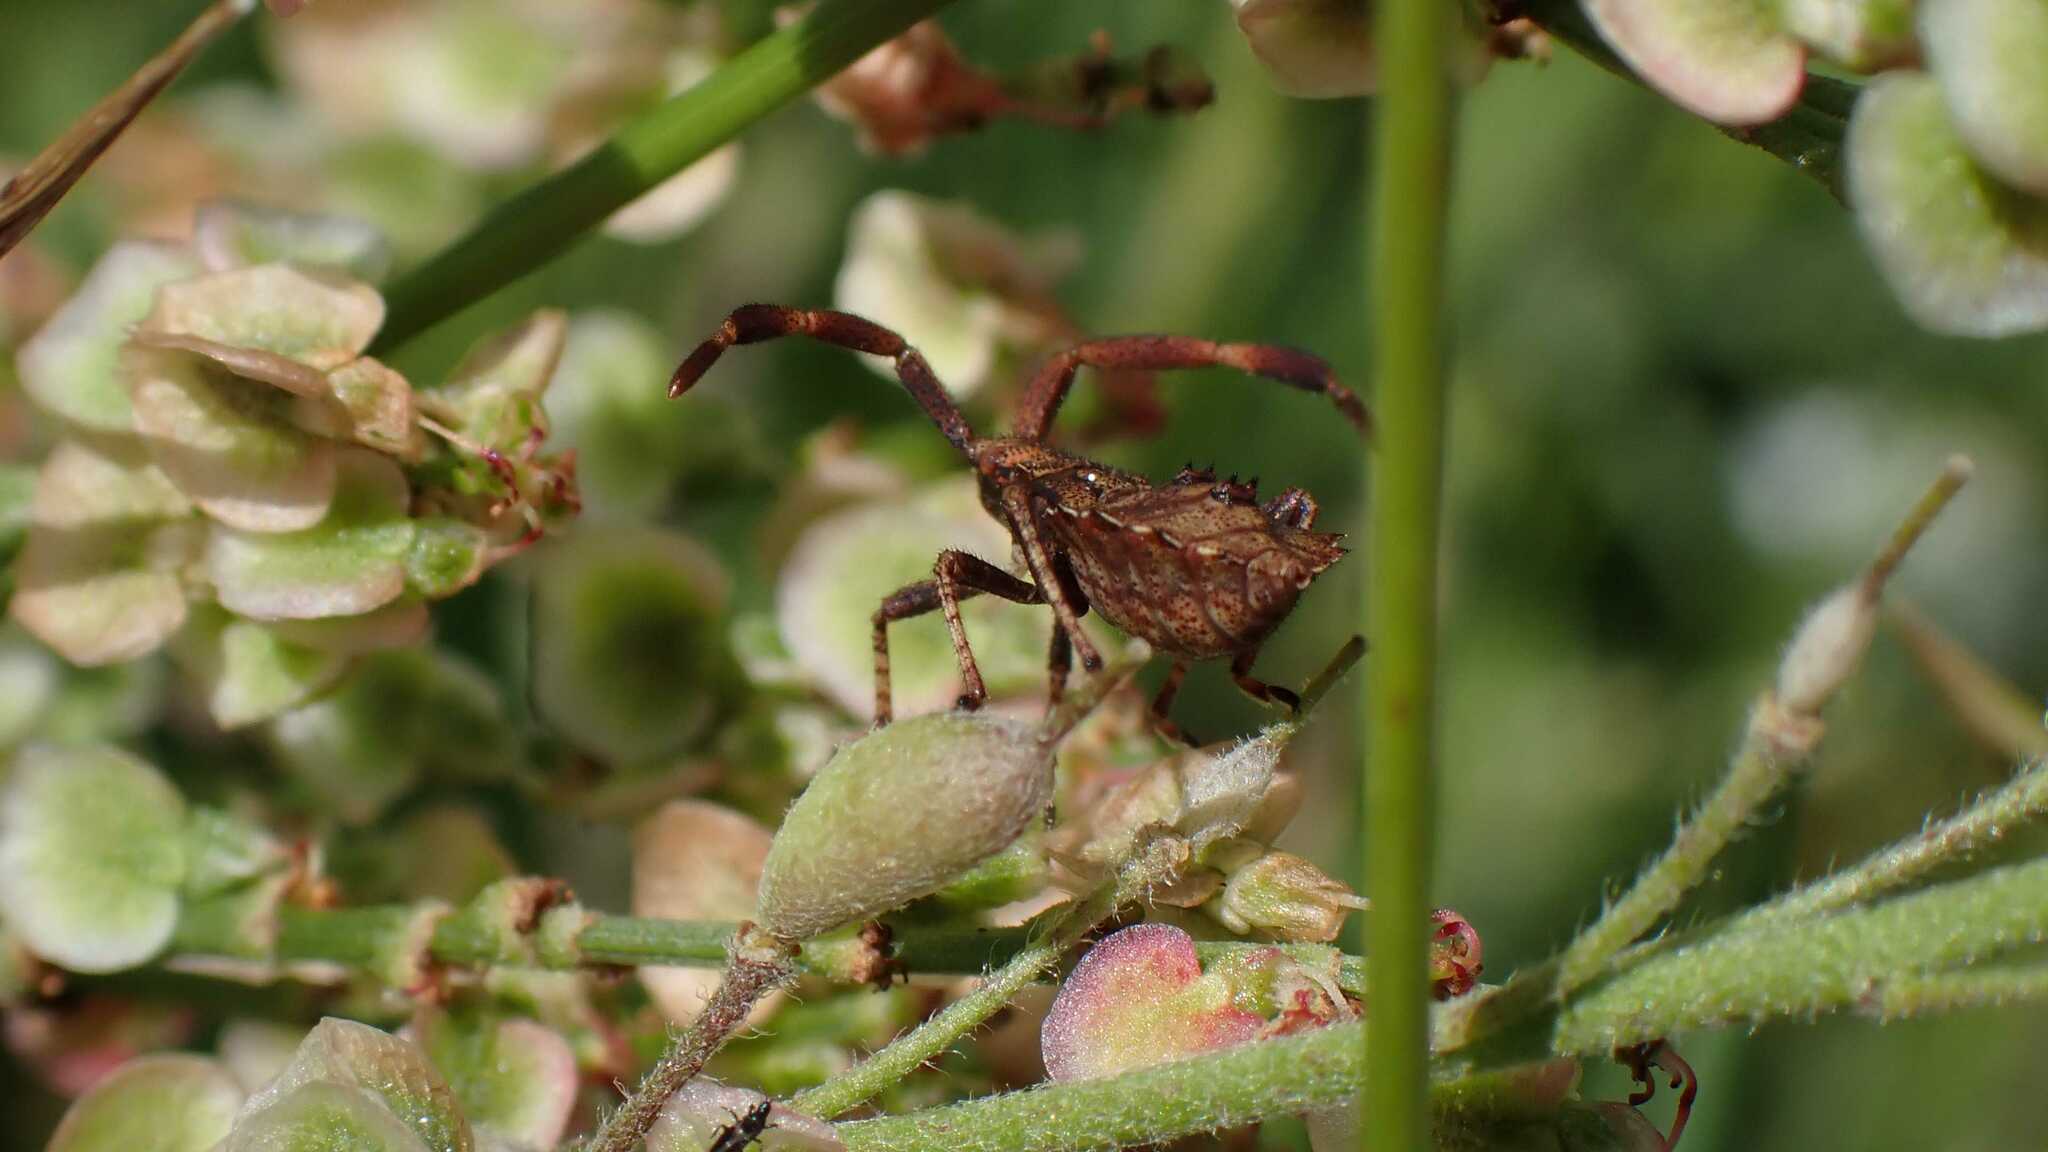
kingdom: Animalia
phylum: Arthropoda
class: Insecta
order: Hemiptera
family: Coreidae
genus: Coreus
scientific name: Coreus marginatus
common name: Dock bug
